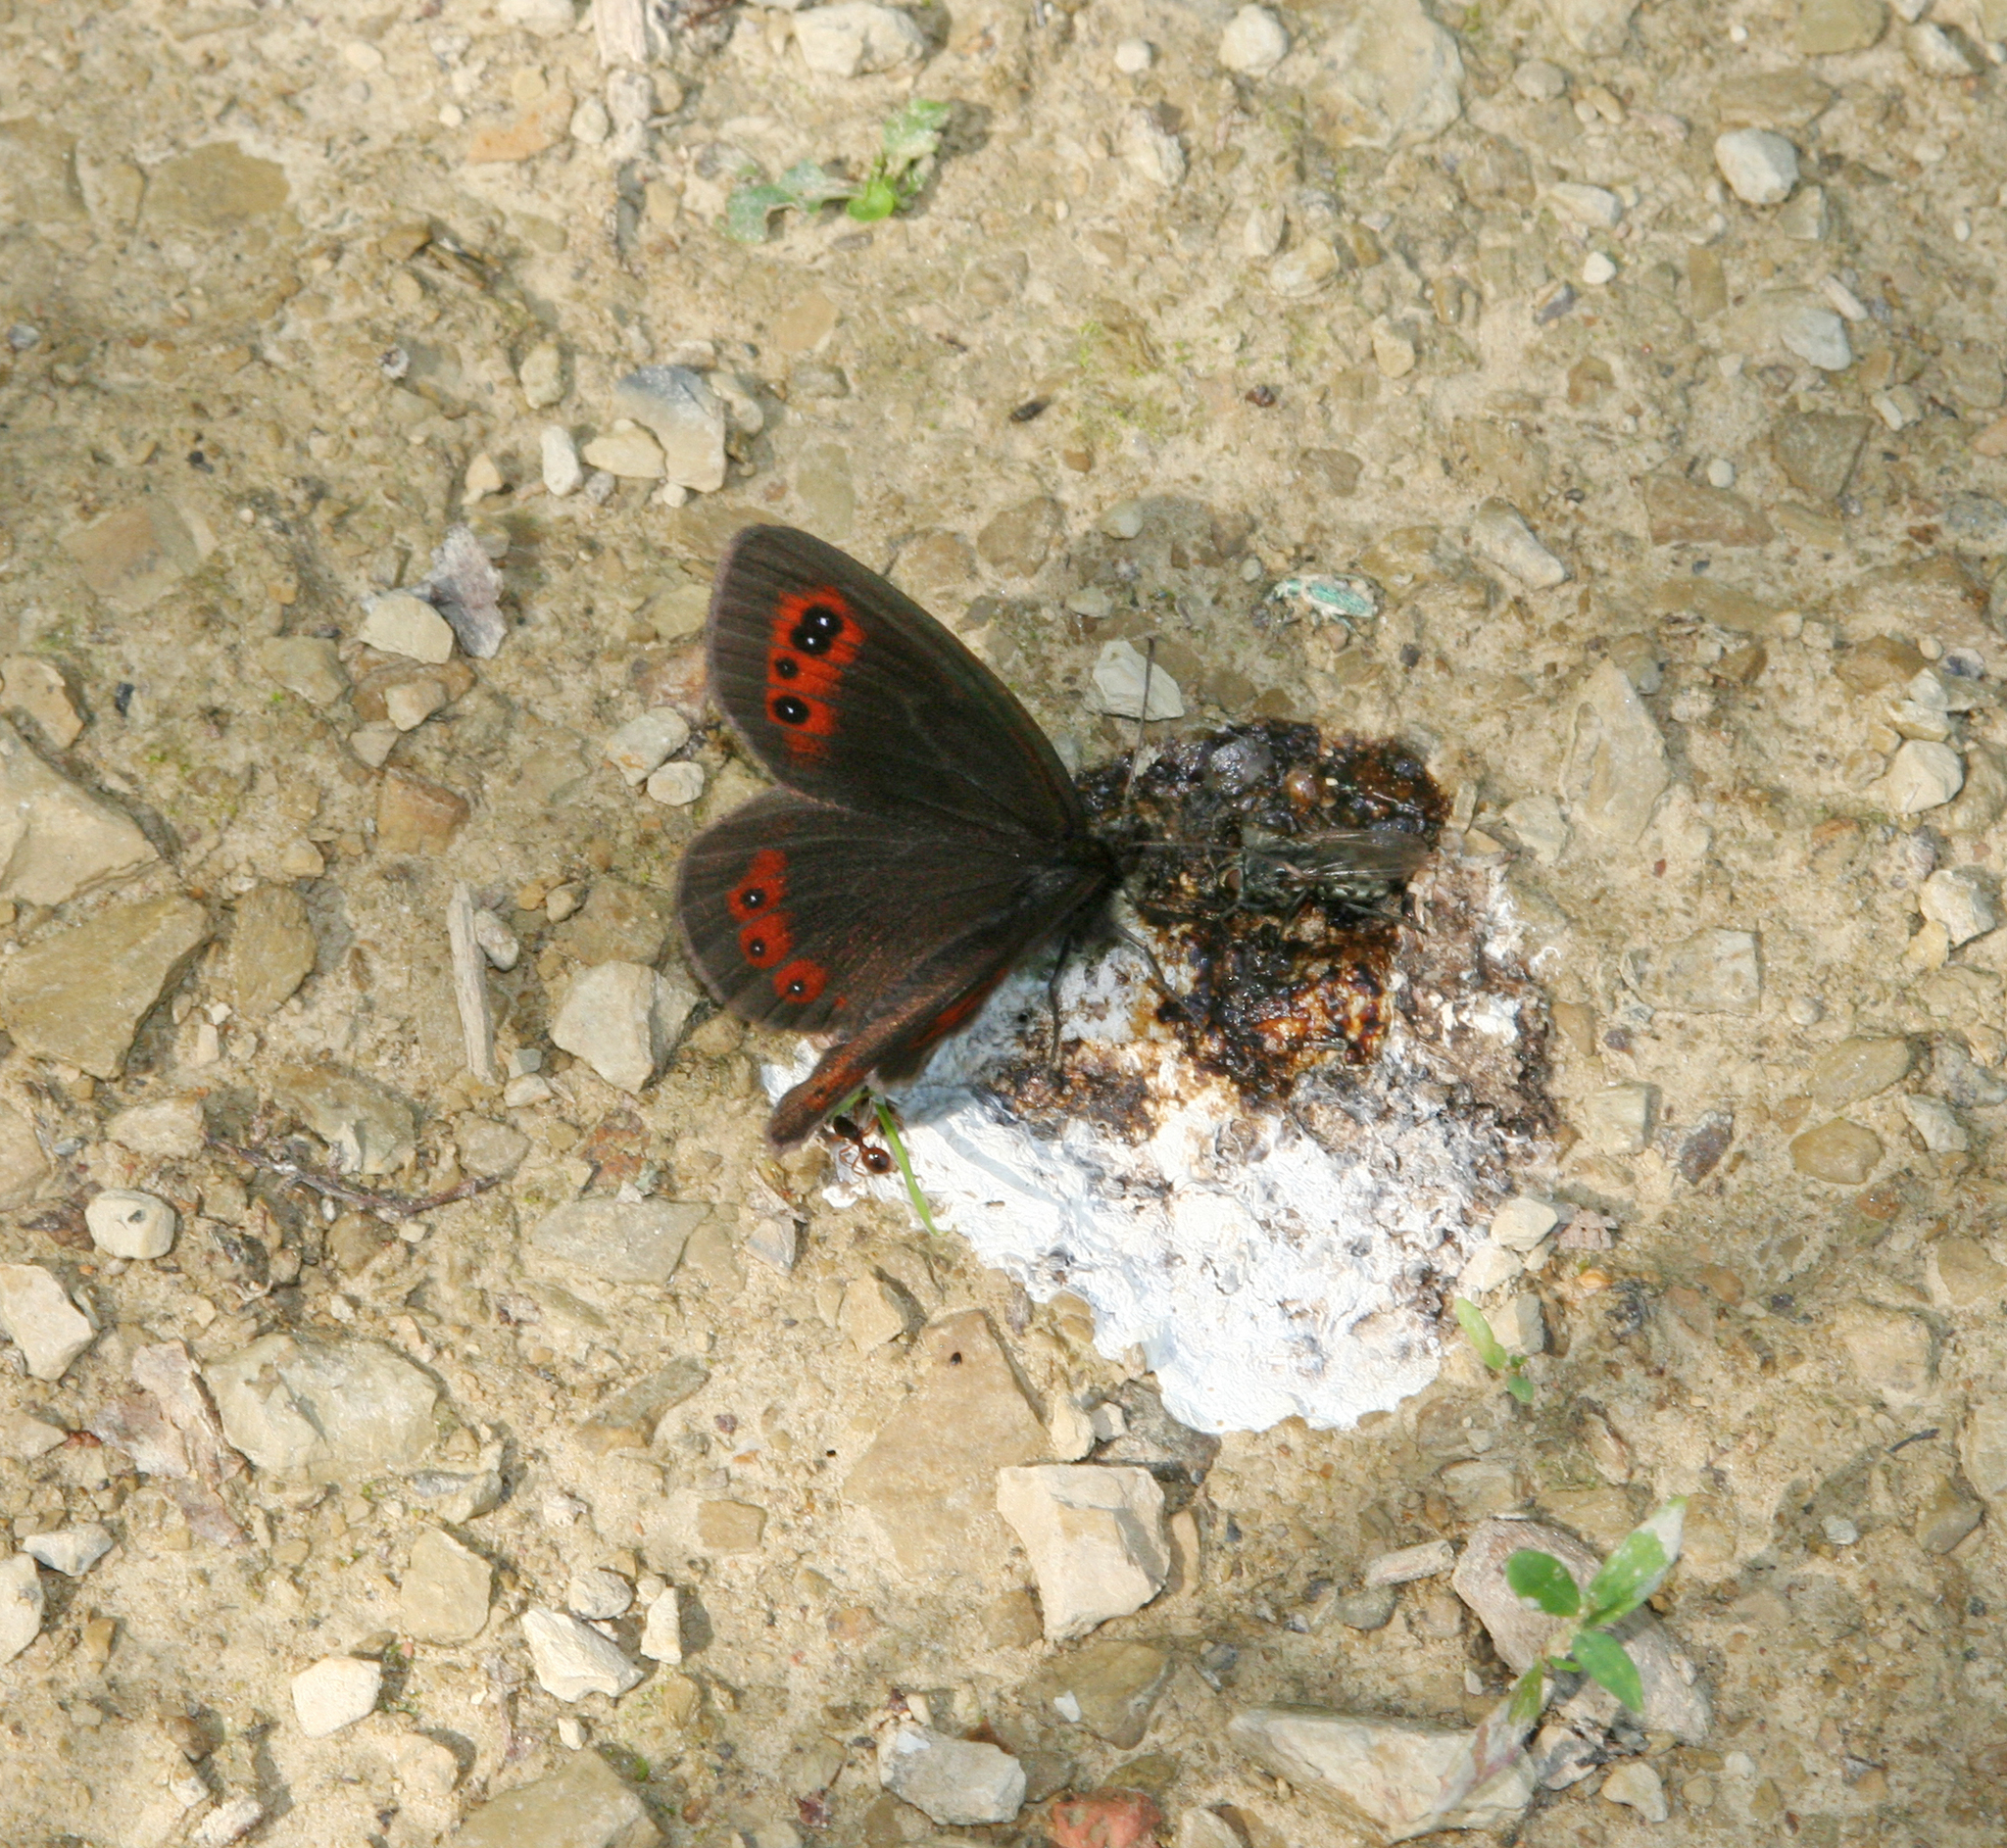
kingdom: Animalia
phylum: Arthropoda
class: Insecta
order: Lepidoptera
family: Nymphalidae
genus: Erebia
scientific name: Erebia aethiops
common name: Scotch argus
